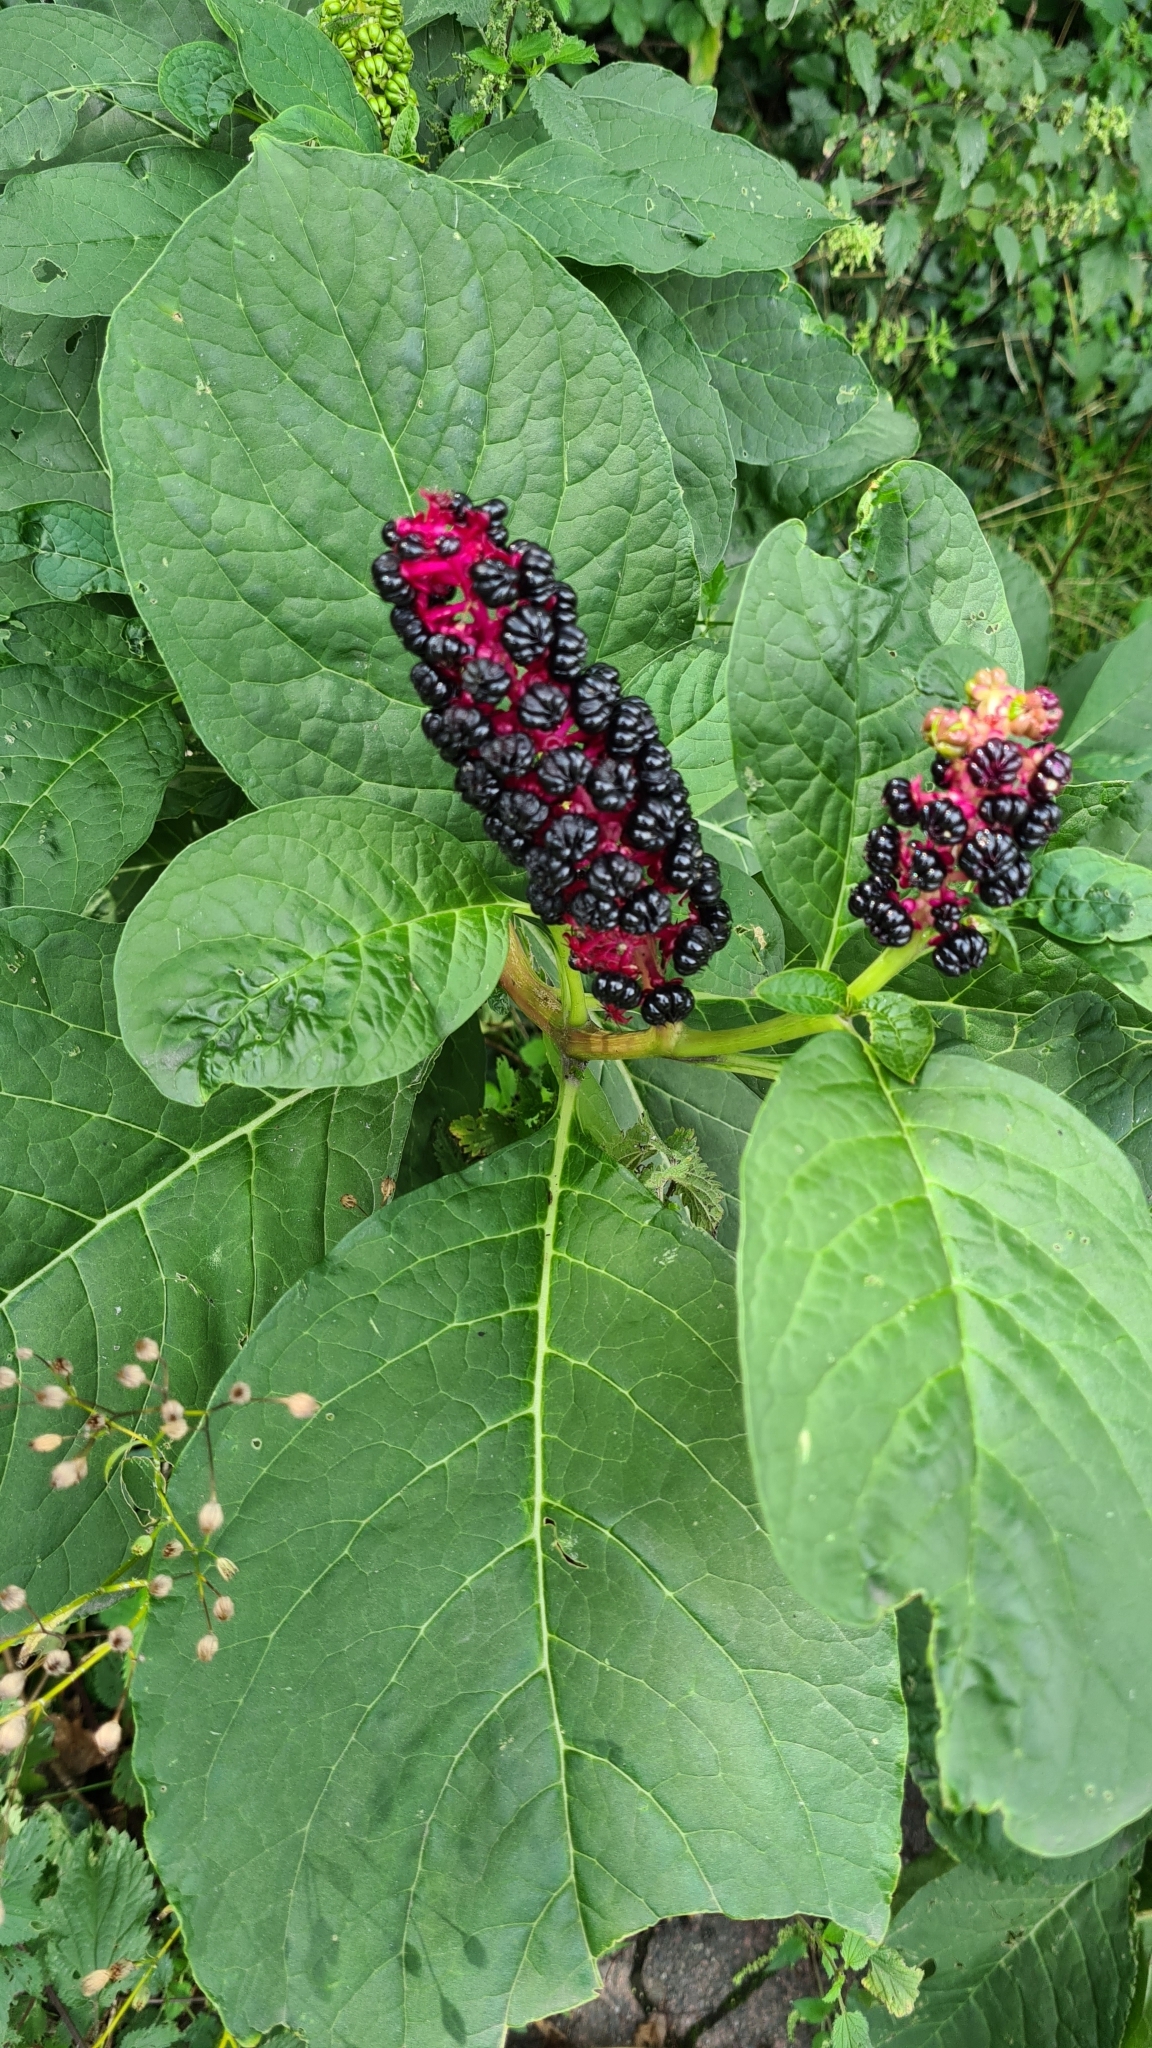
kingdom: Plantae
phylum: Tracheophyta
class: Magnoliopsida
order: Caryophyllales
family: Phytolaccaceae
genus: Phytolacca
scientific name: Phytolacca acinosa
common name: Indian pokeweed
